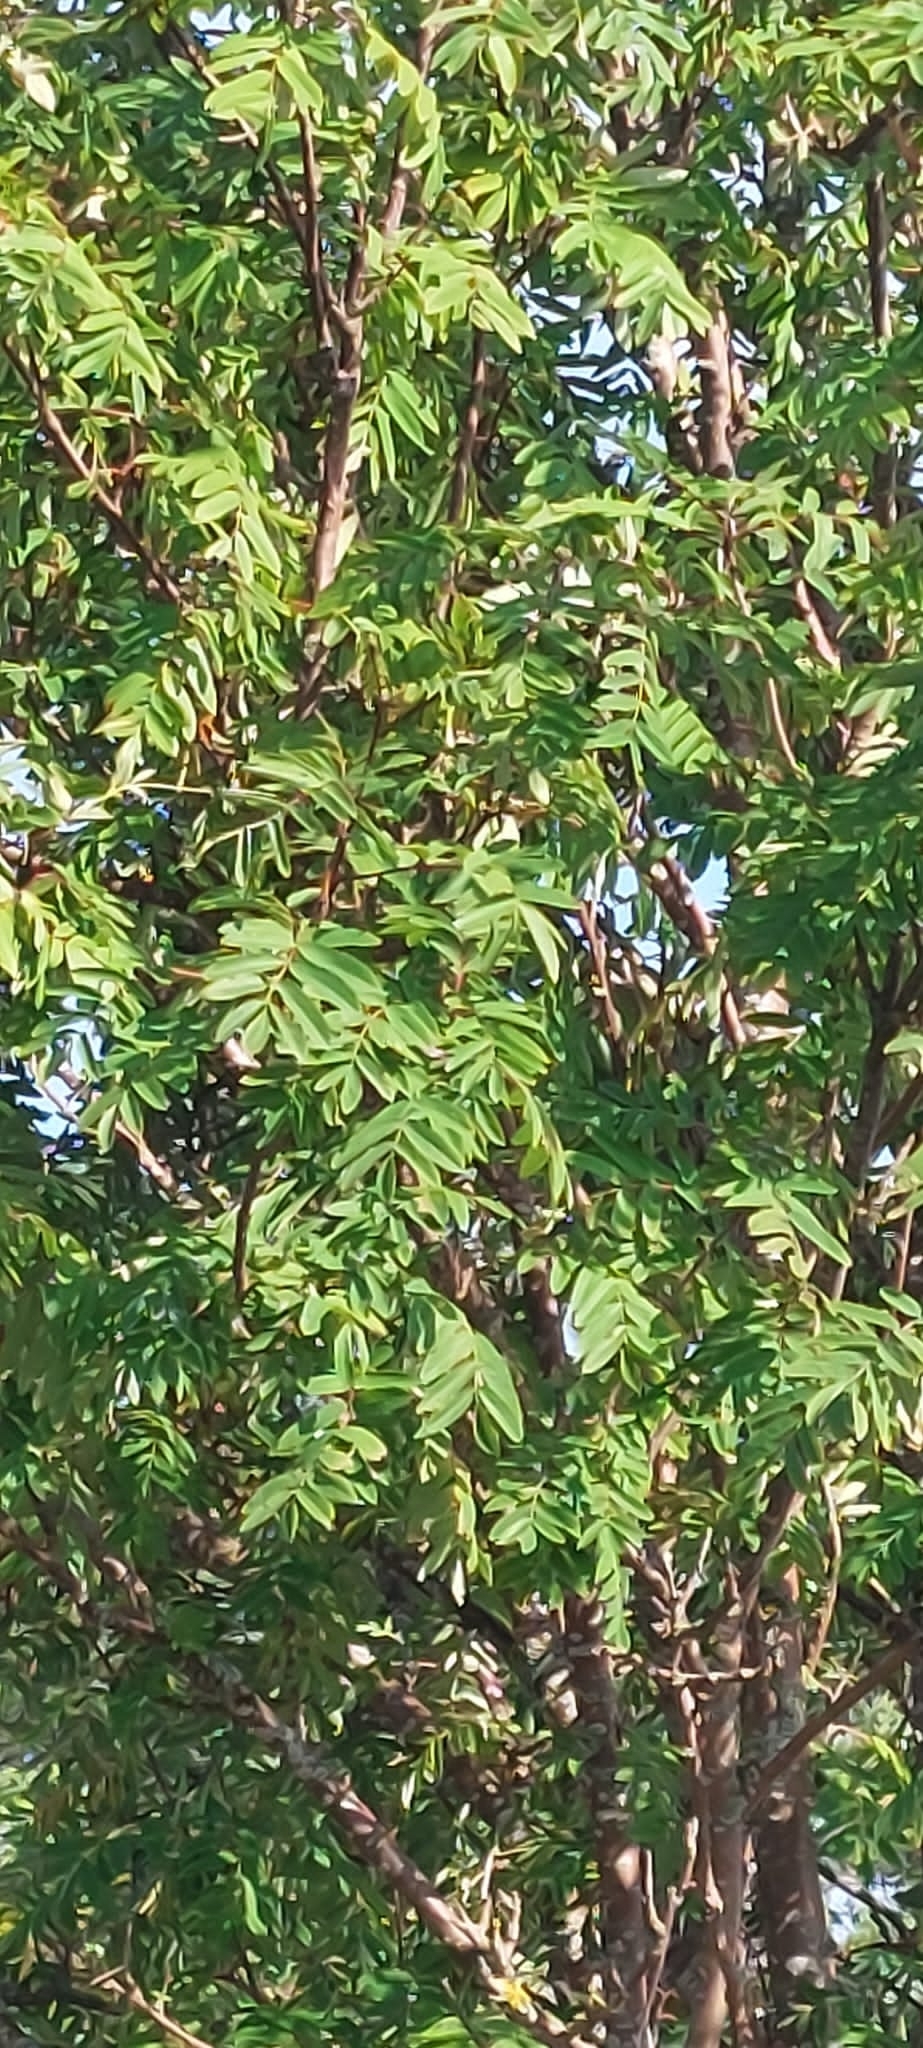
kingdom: Plantae
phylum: Tracheophyta
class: Magnoliopsida
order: Rosales
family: Rosaceae
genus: Sorbus
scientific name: Sorbus aucuparia
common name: Rowan
